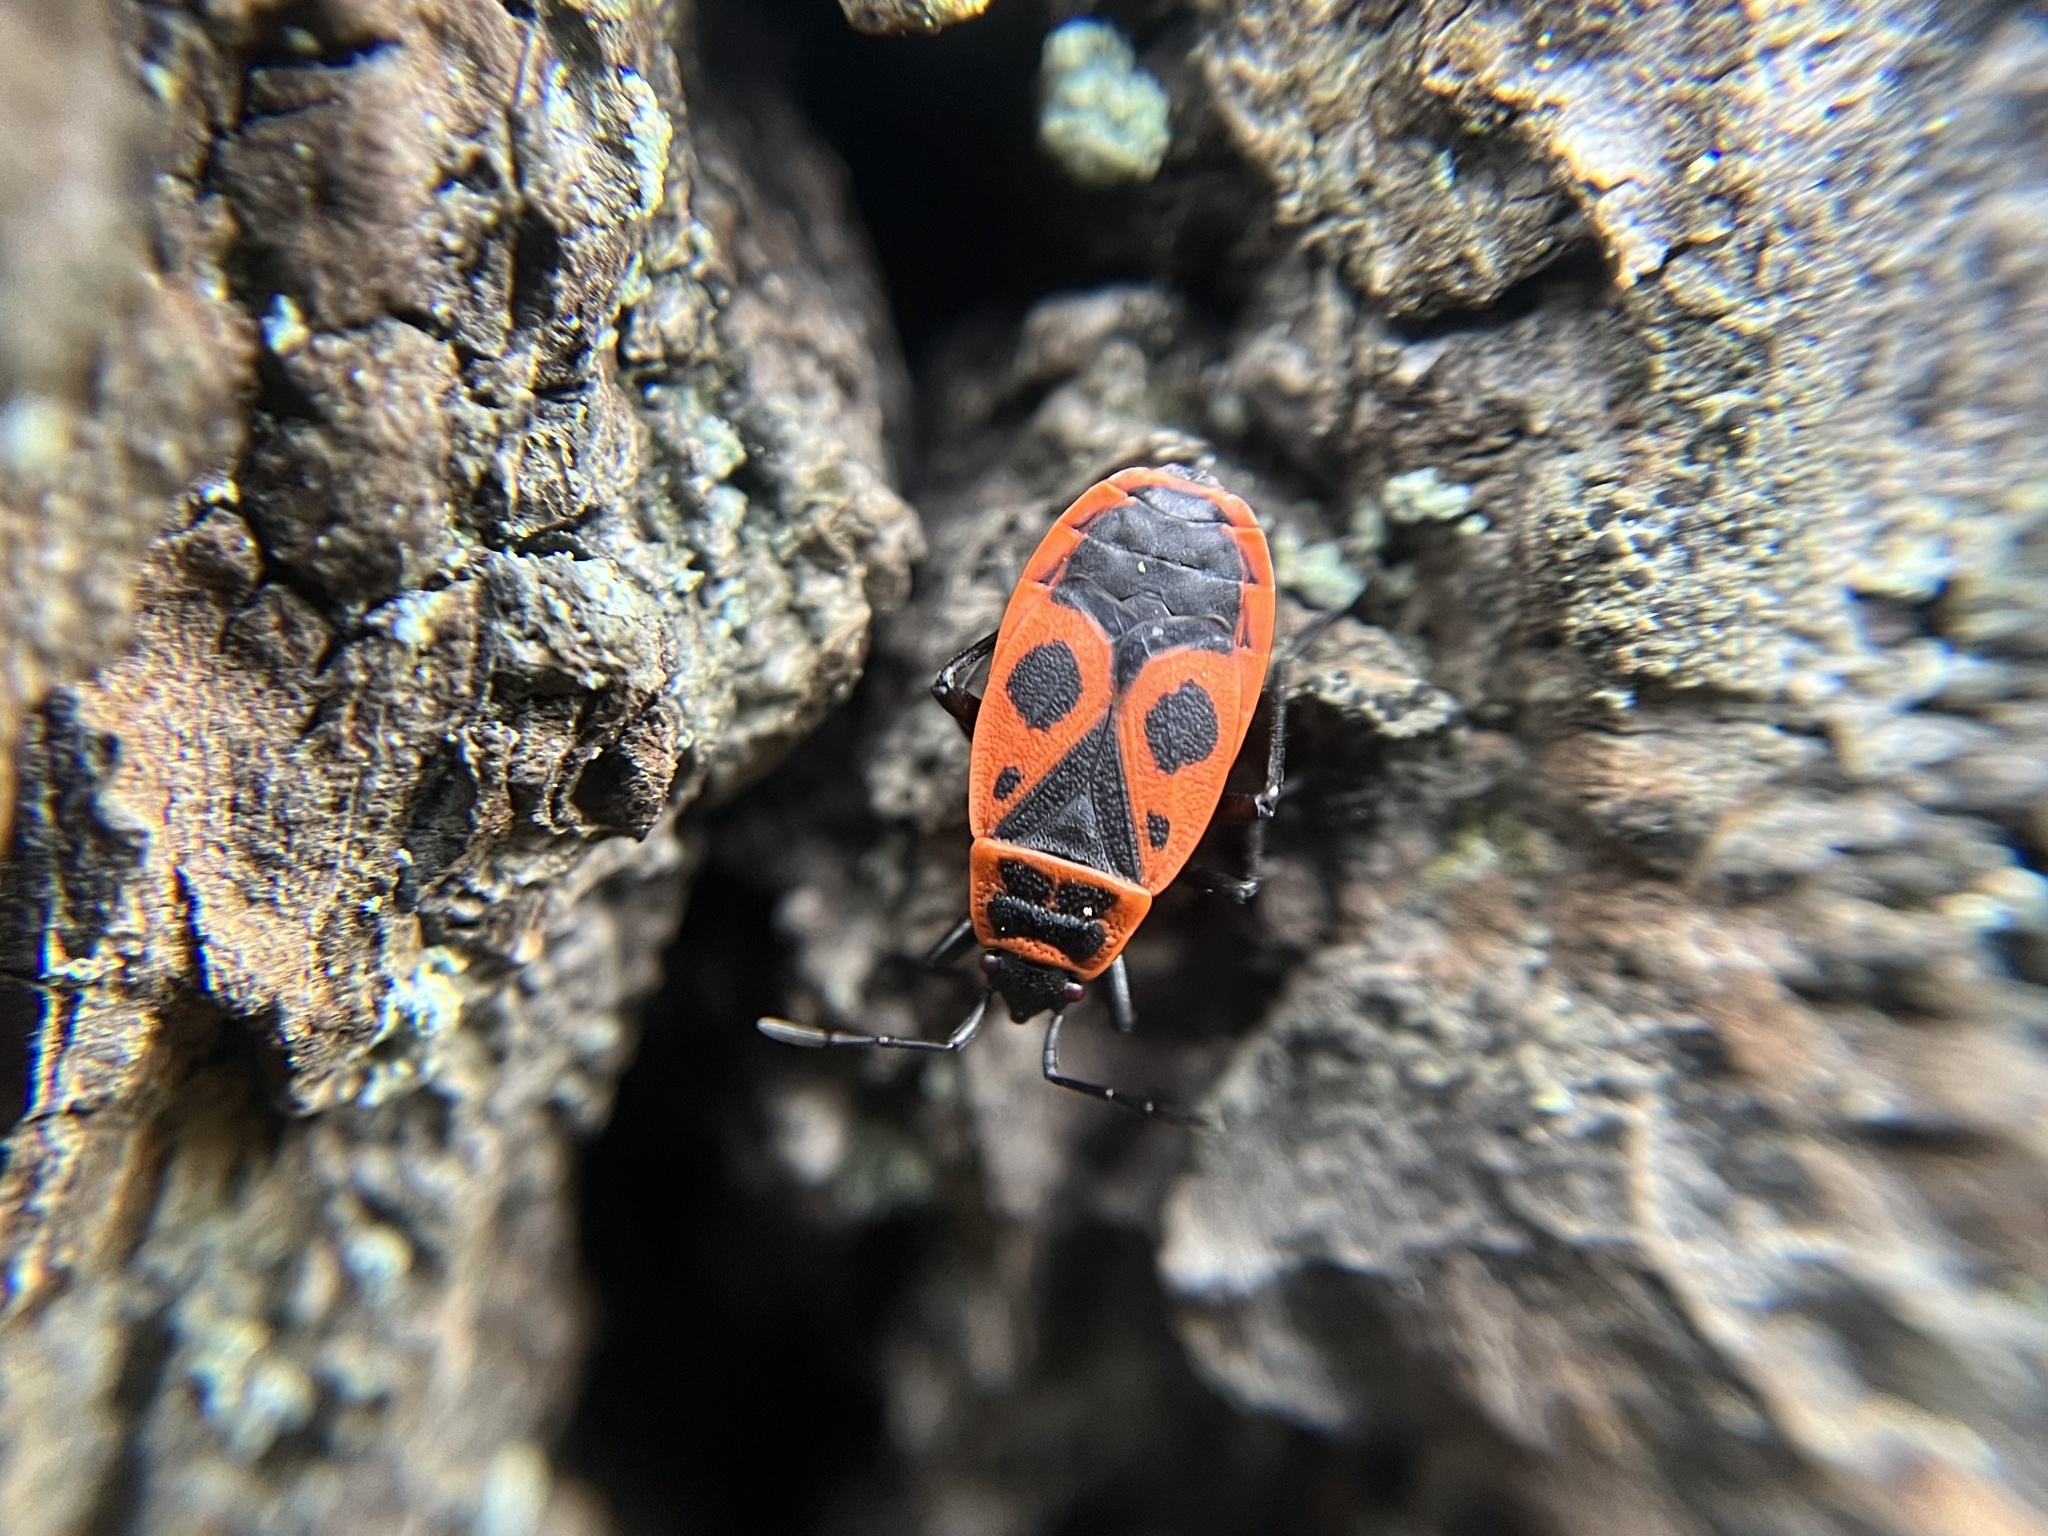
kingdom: Animalia
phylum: Arthropoda
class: Insecta
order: Hemiptera
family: Pyrrhocoridae
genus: Pyrrhocoris
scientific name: Pyrrhocoris apterus
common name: Firebug
